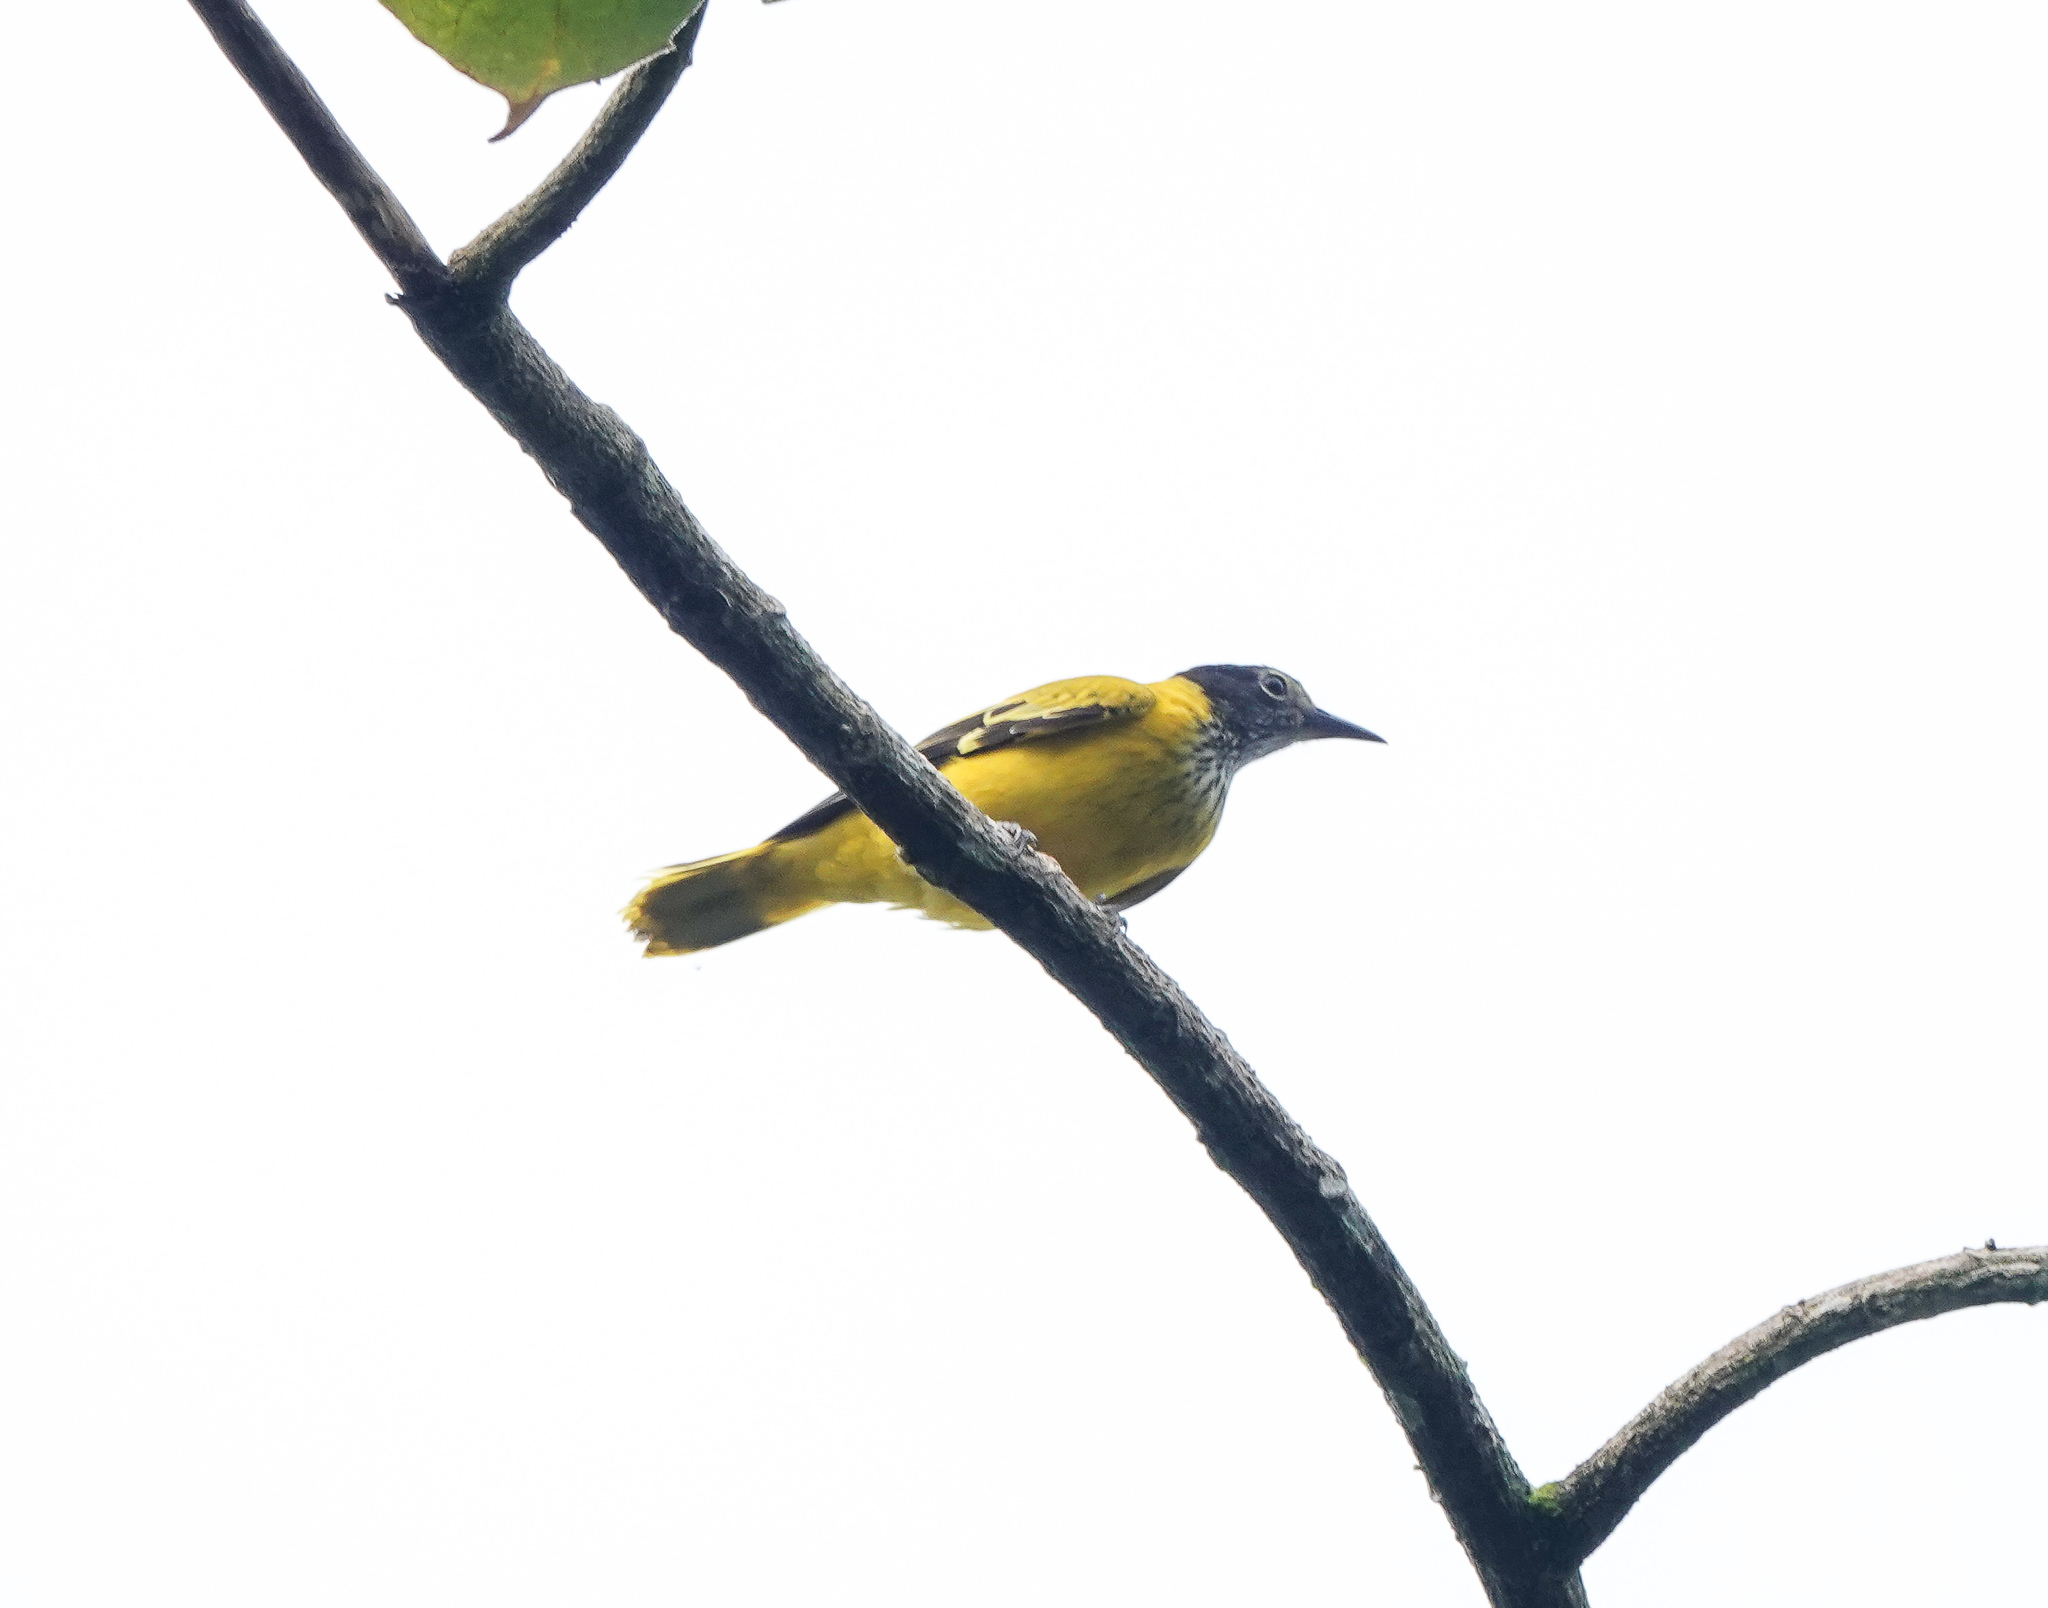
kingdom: Animalia
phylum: Chordata
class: Aves
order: Passeriformes
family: Oriolidae
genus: Oriolus
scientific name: Oriolus xanthornus
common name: Black-hooded oriole
